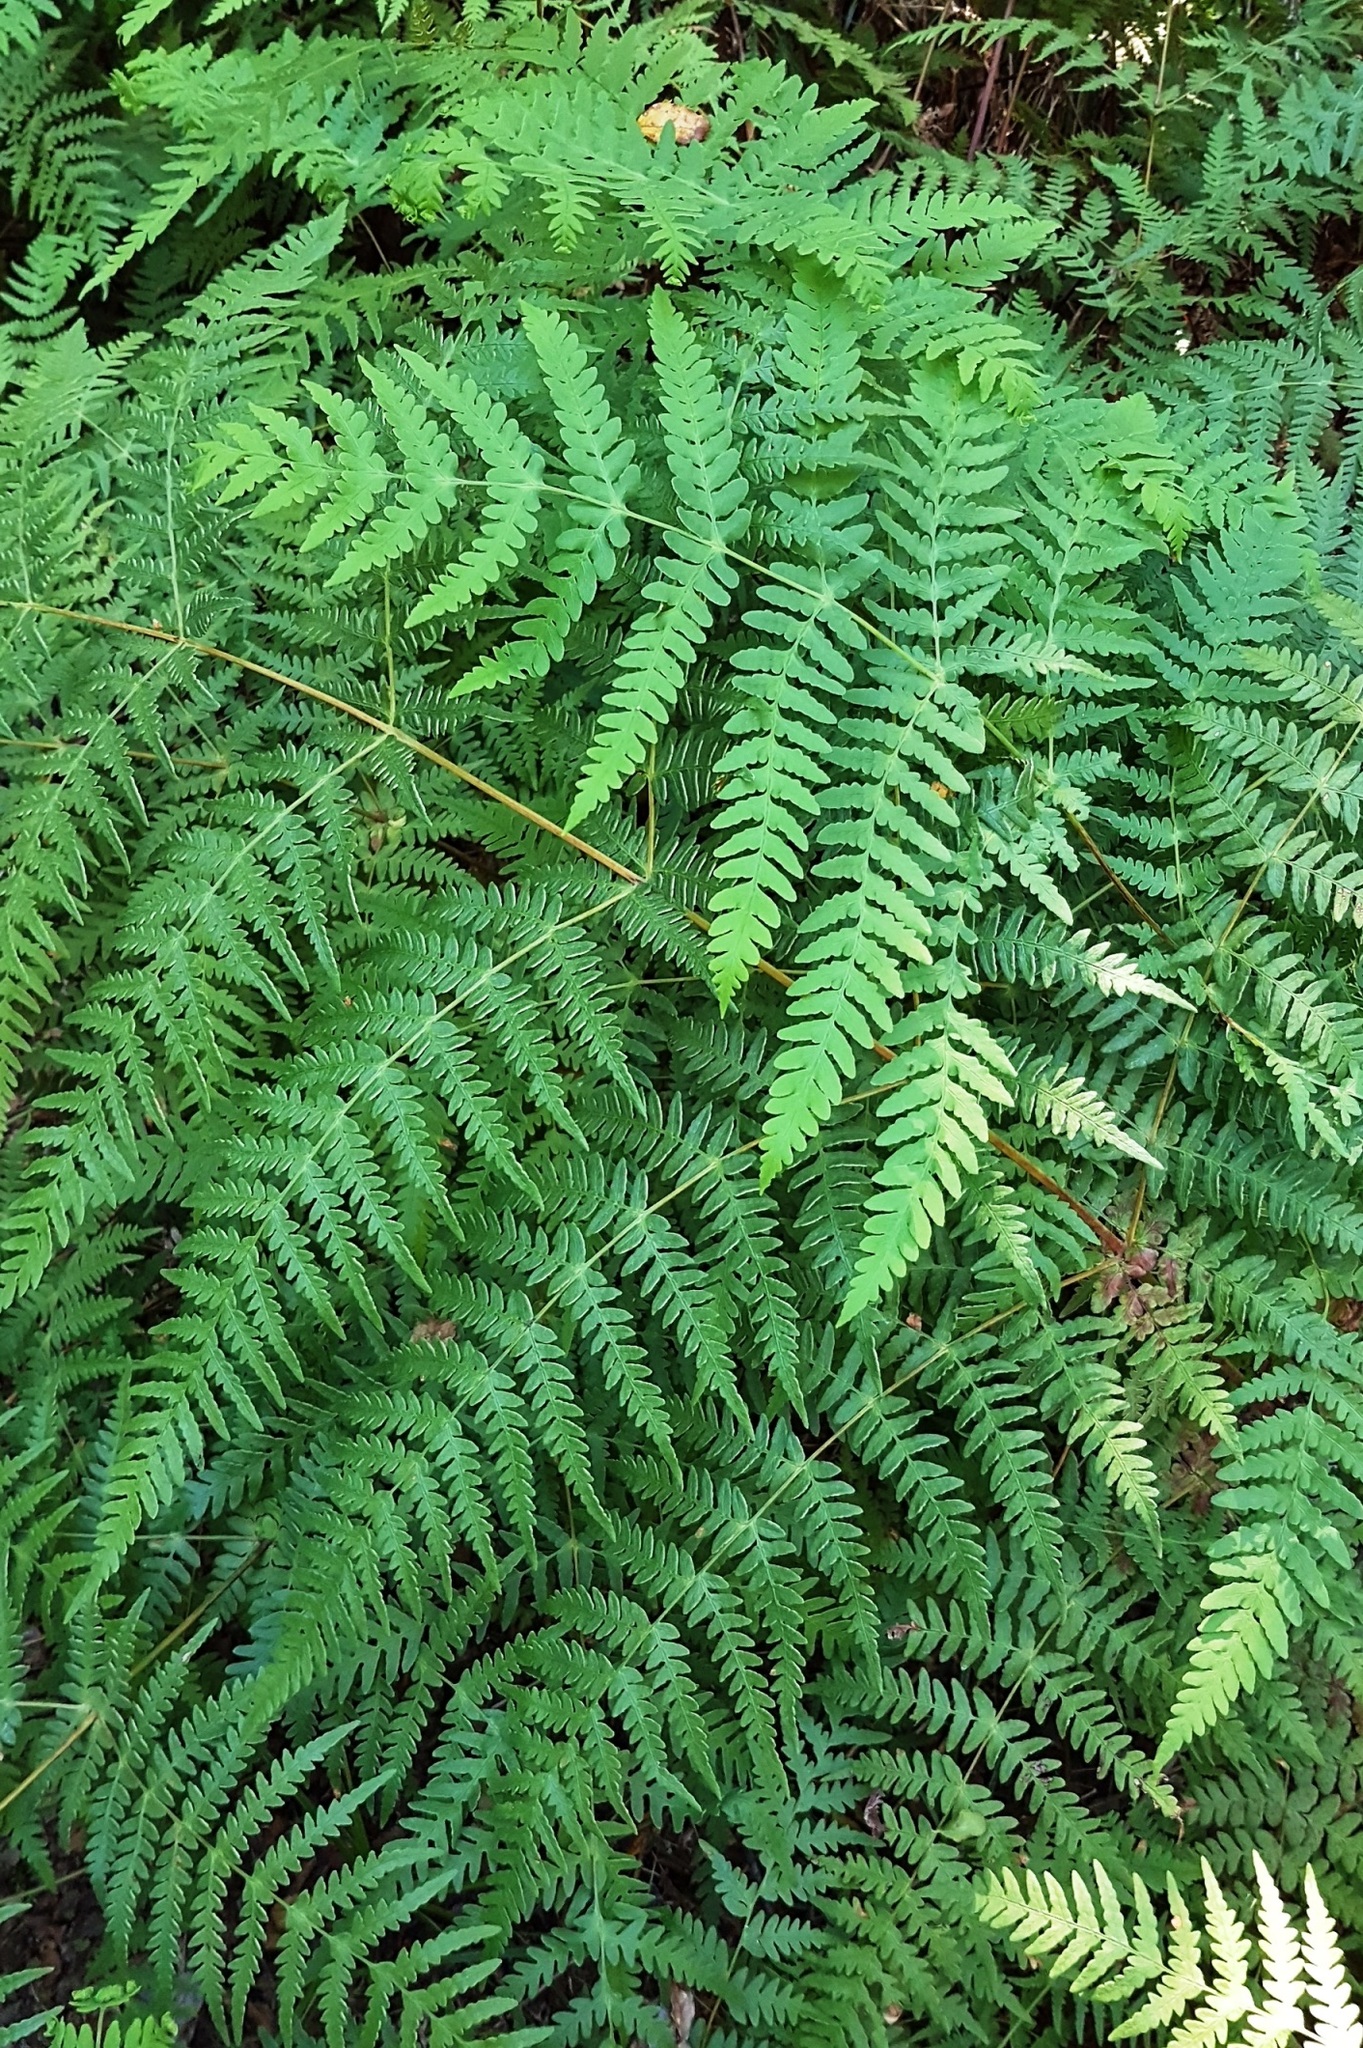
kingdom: Plantae
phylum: Tracheophyta
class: Polypodiopsida
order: Polypodiales
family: Dennstaedtiaceae
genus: Histiopteris
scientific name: Histiopteris incisa
